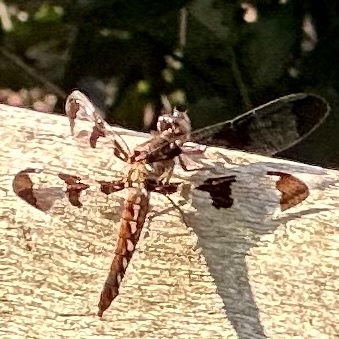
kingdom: Animalia
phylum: Arthropoda
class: Insecta
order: Odonata
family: Libellulidae
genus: Plathemis
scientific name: Plathemis lydia
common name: Common whitetail
